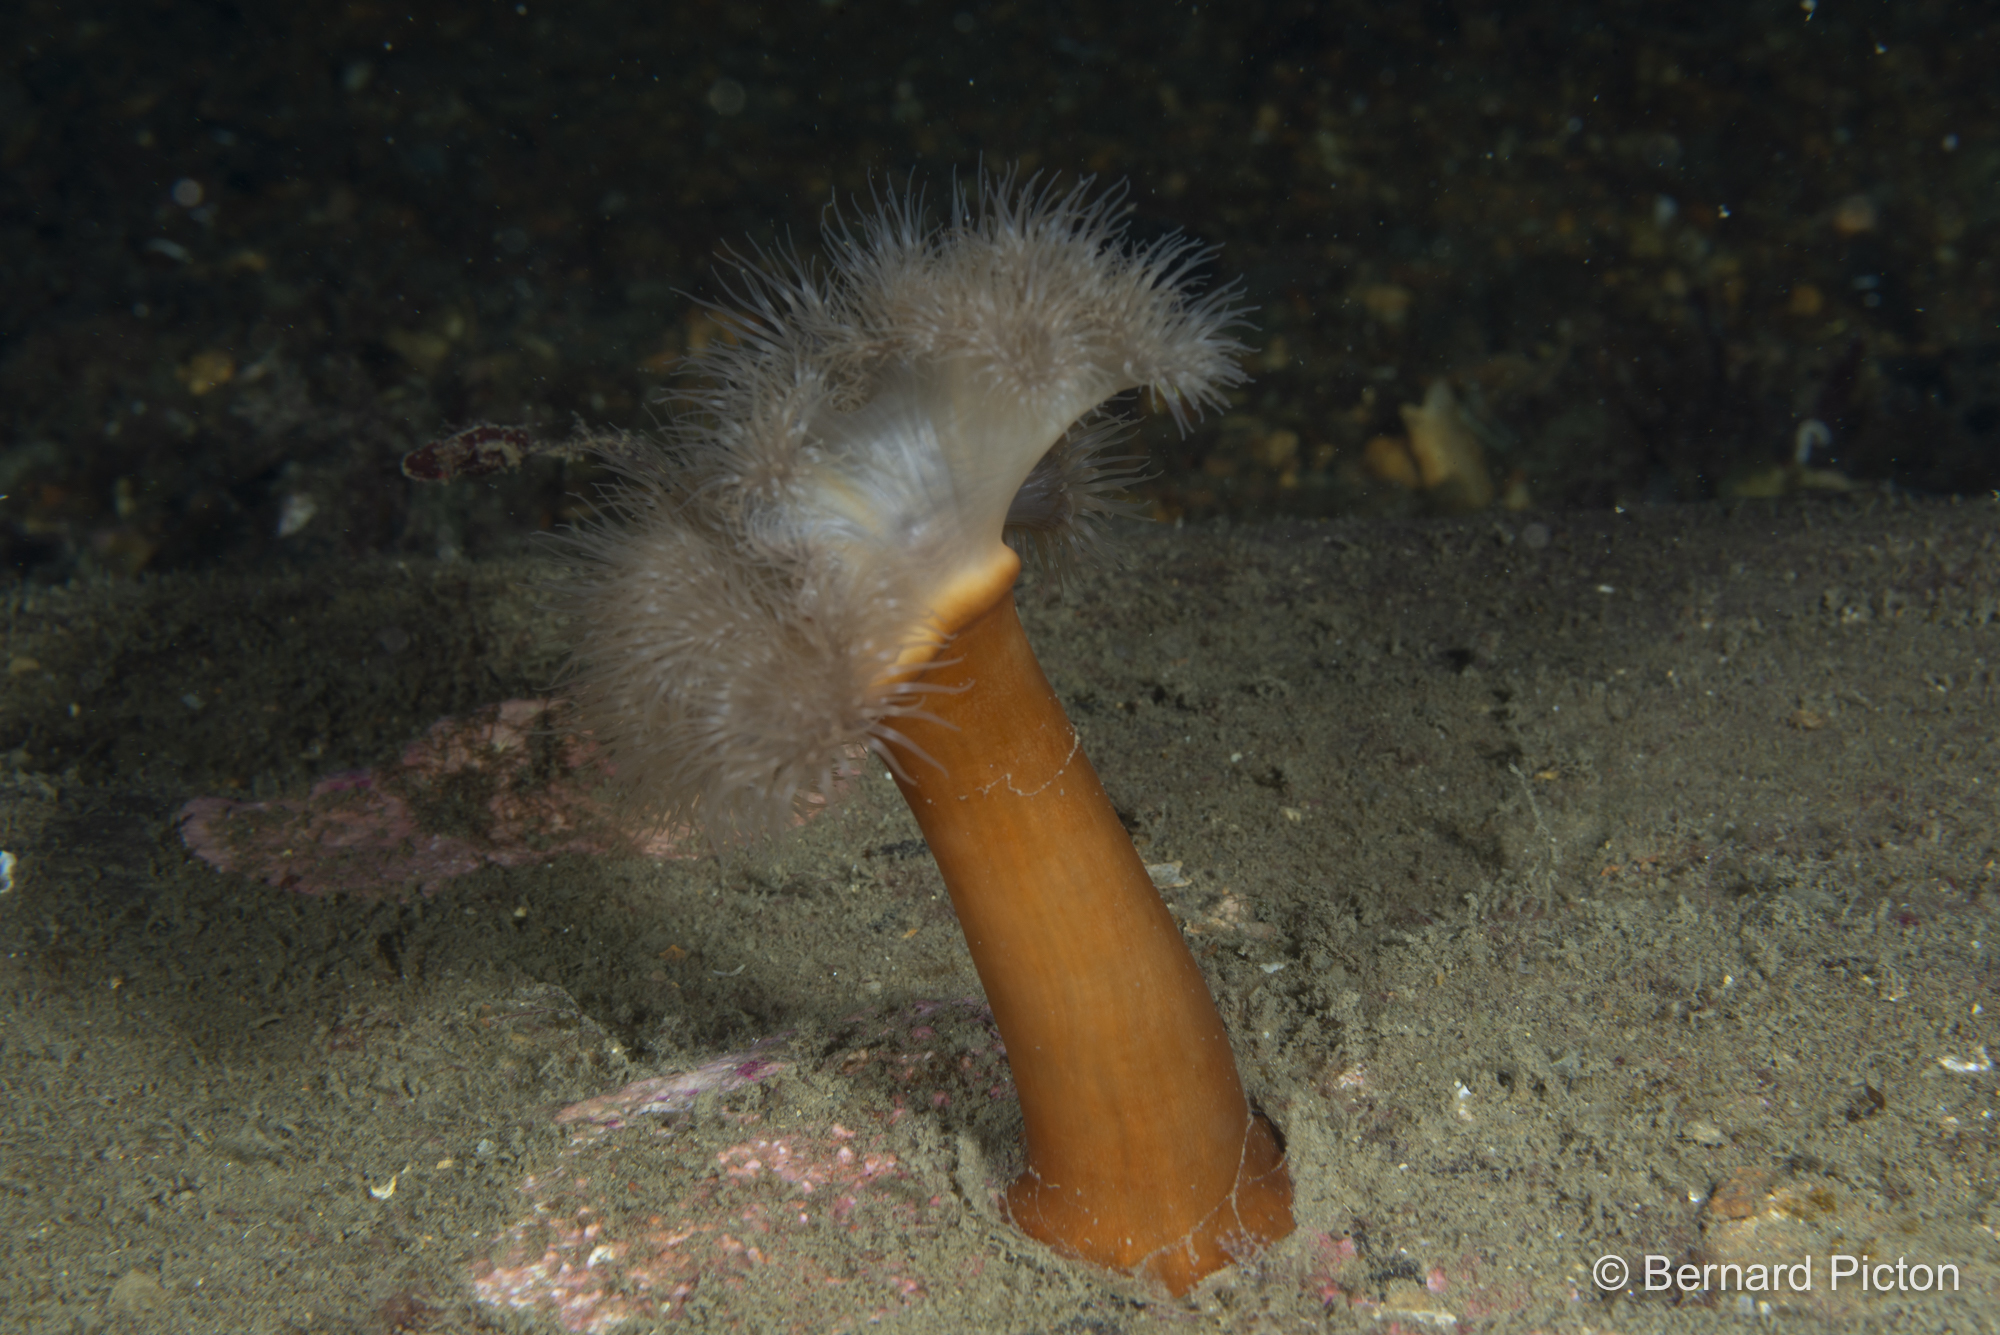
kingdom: Animalia
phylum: Cnidaria
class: Anthozoa
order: Actiniaria
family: Metridiidae
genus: Metridium
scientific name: Metridium senile
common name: Clonal plumose anemone
